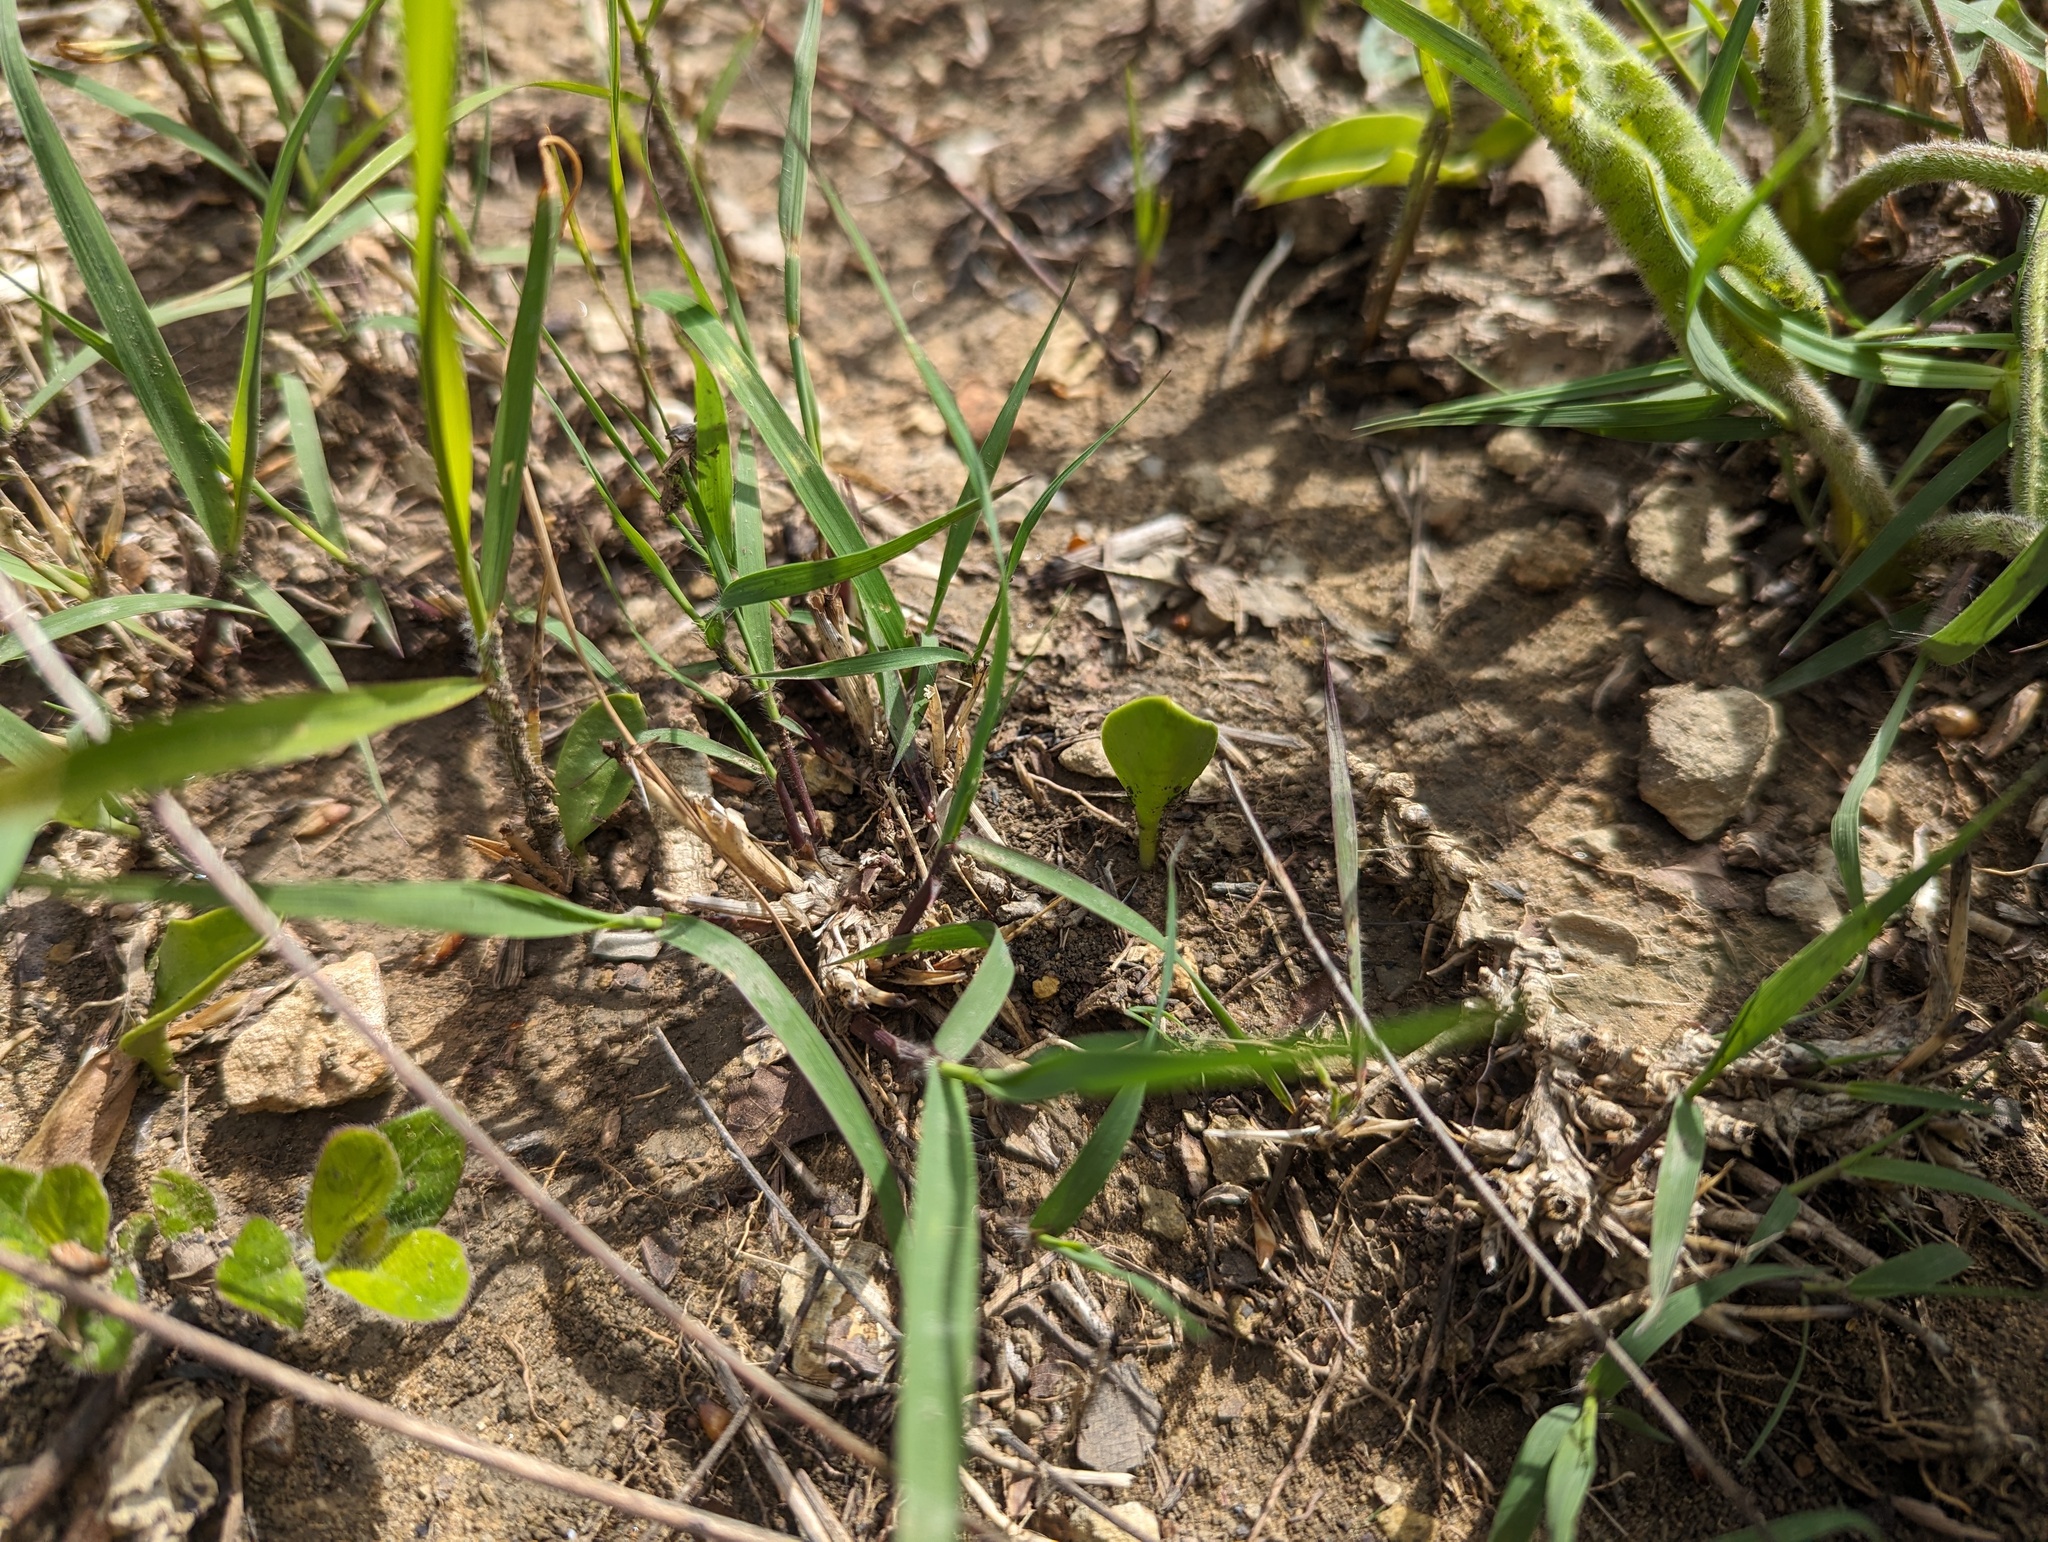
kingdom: Plantae
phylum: Tracheophyta
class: Polypodiopsida
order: Ophioglossales
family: Ophioglossaceae
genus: Ophioglossum
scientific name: Ophioglossum engelmannii
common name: Limestone adder's-tongue
